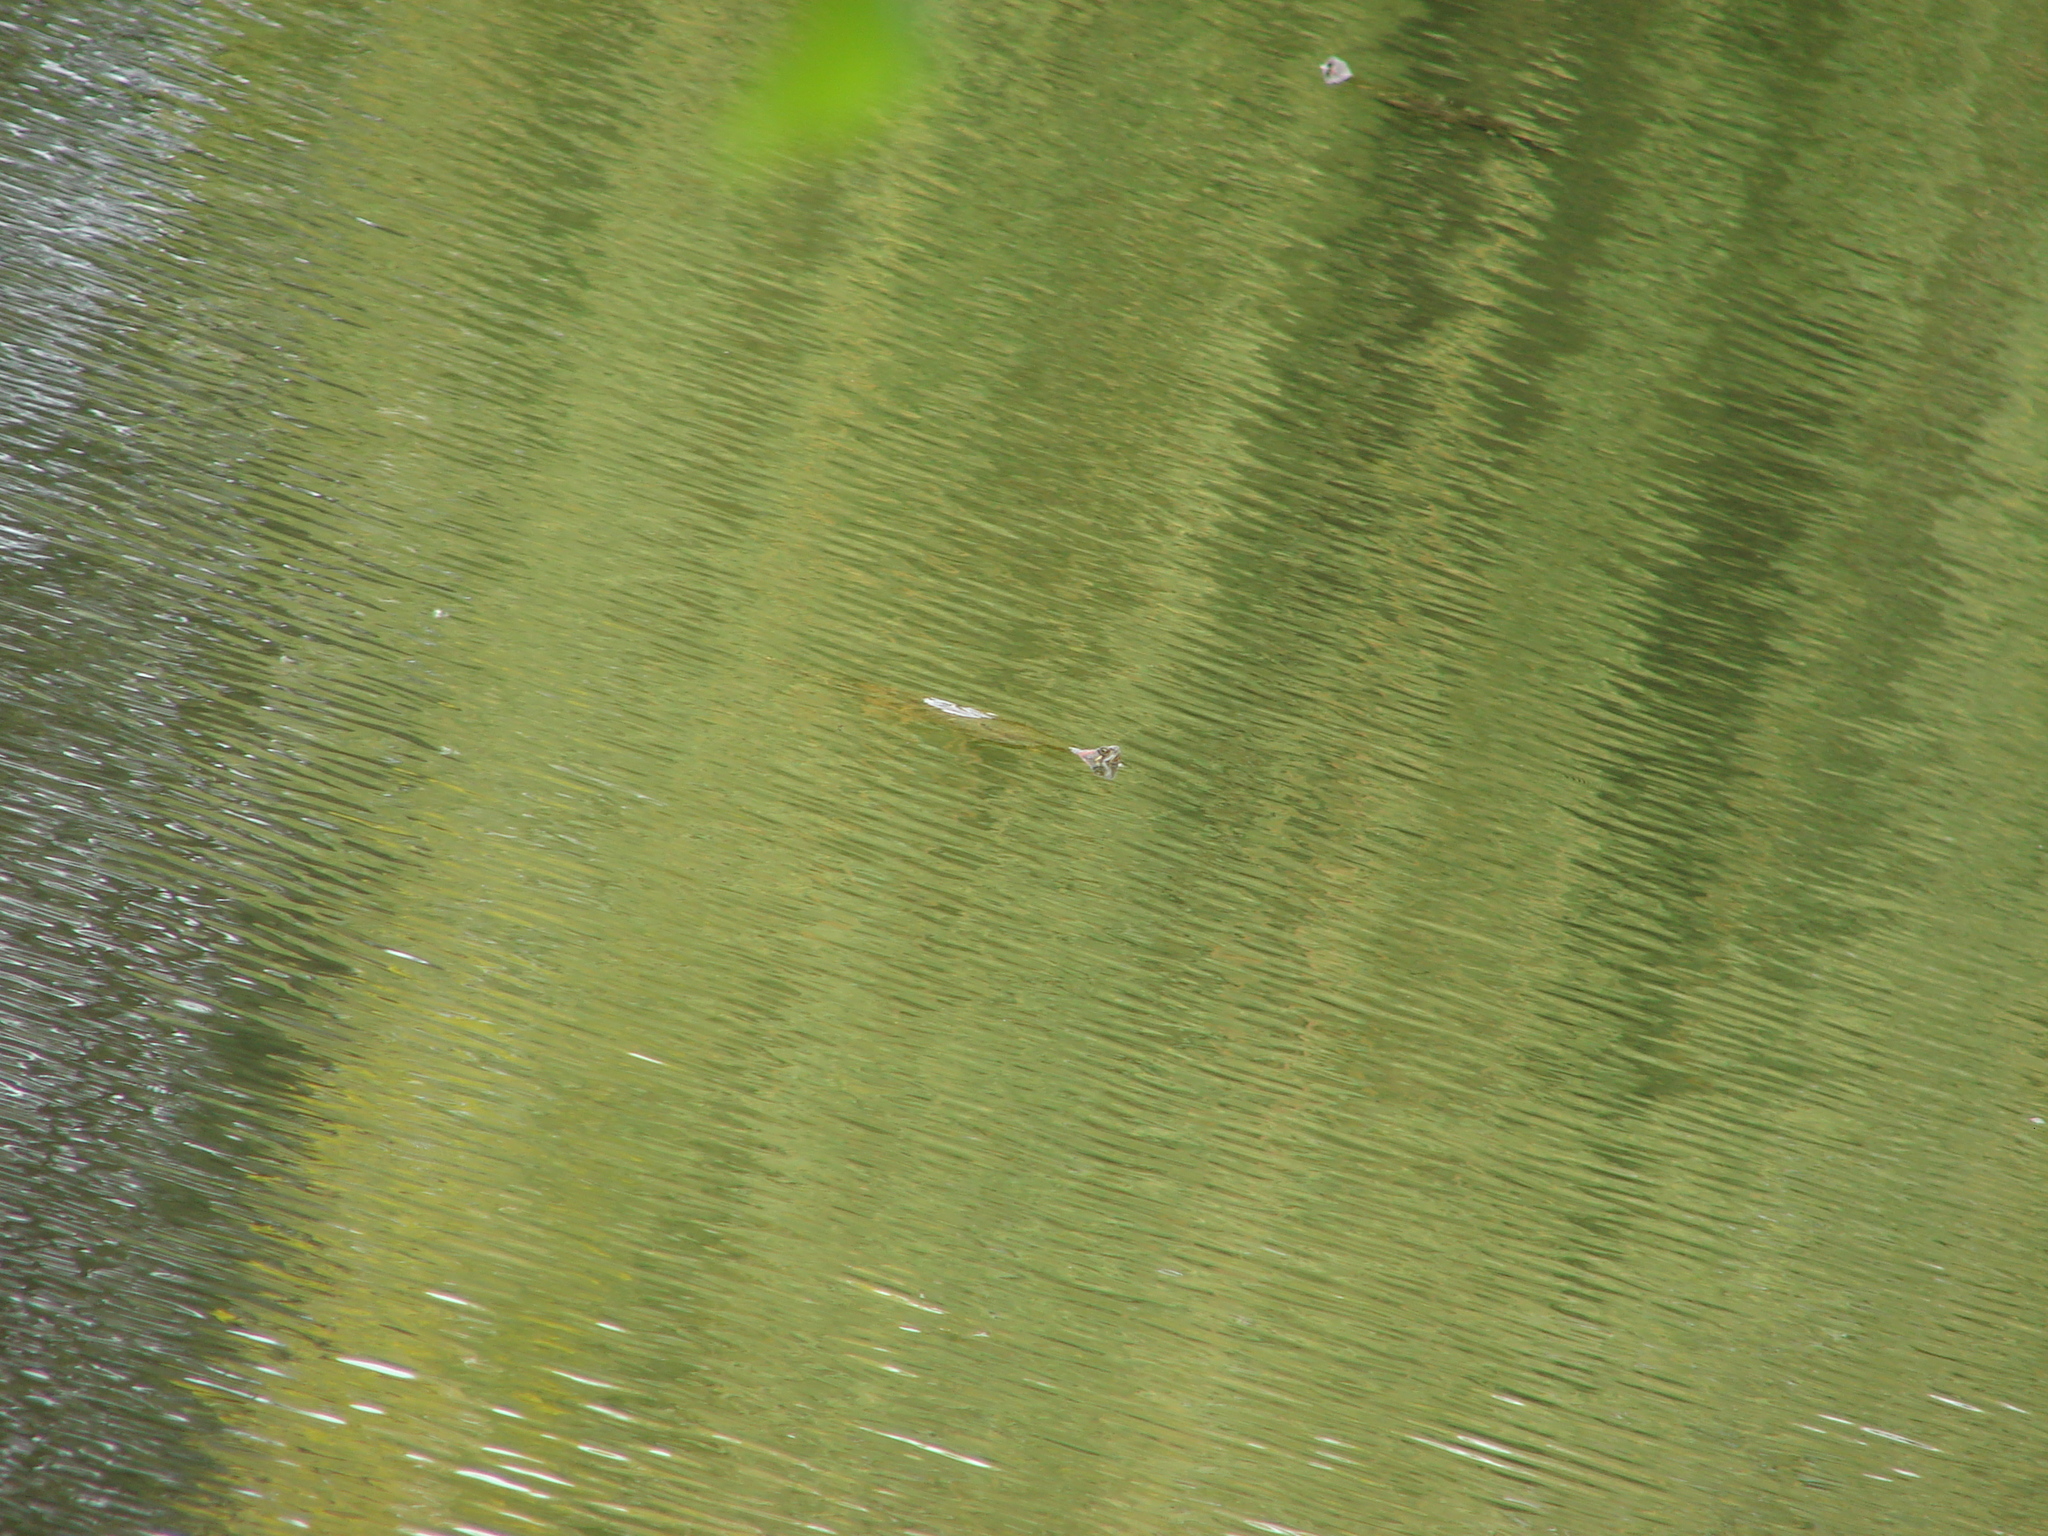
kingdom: Animalia
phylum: Chordata
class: Testudines
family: Emydidae
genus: Trachemys
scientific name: Trachemys scripta
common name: Slider
